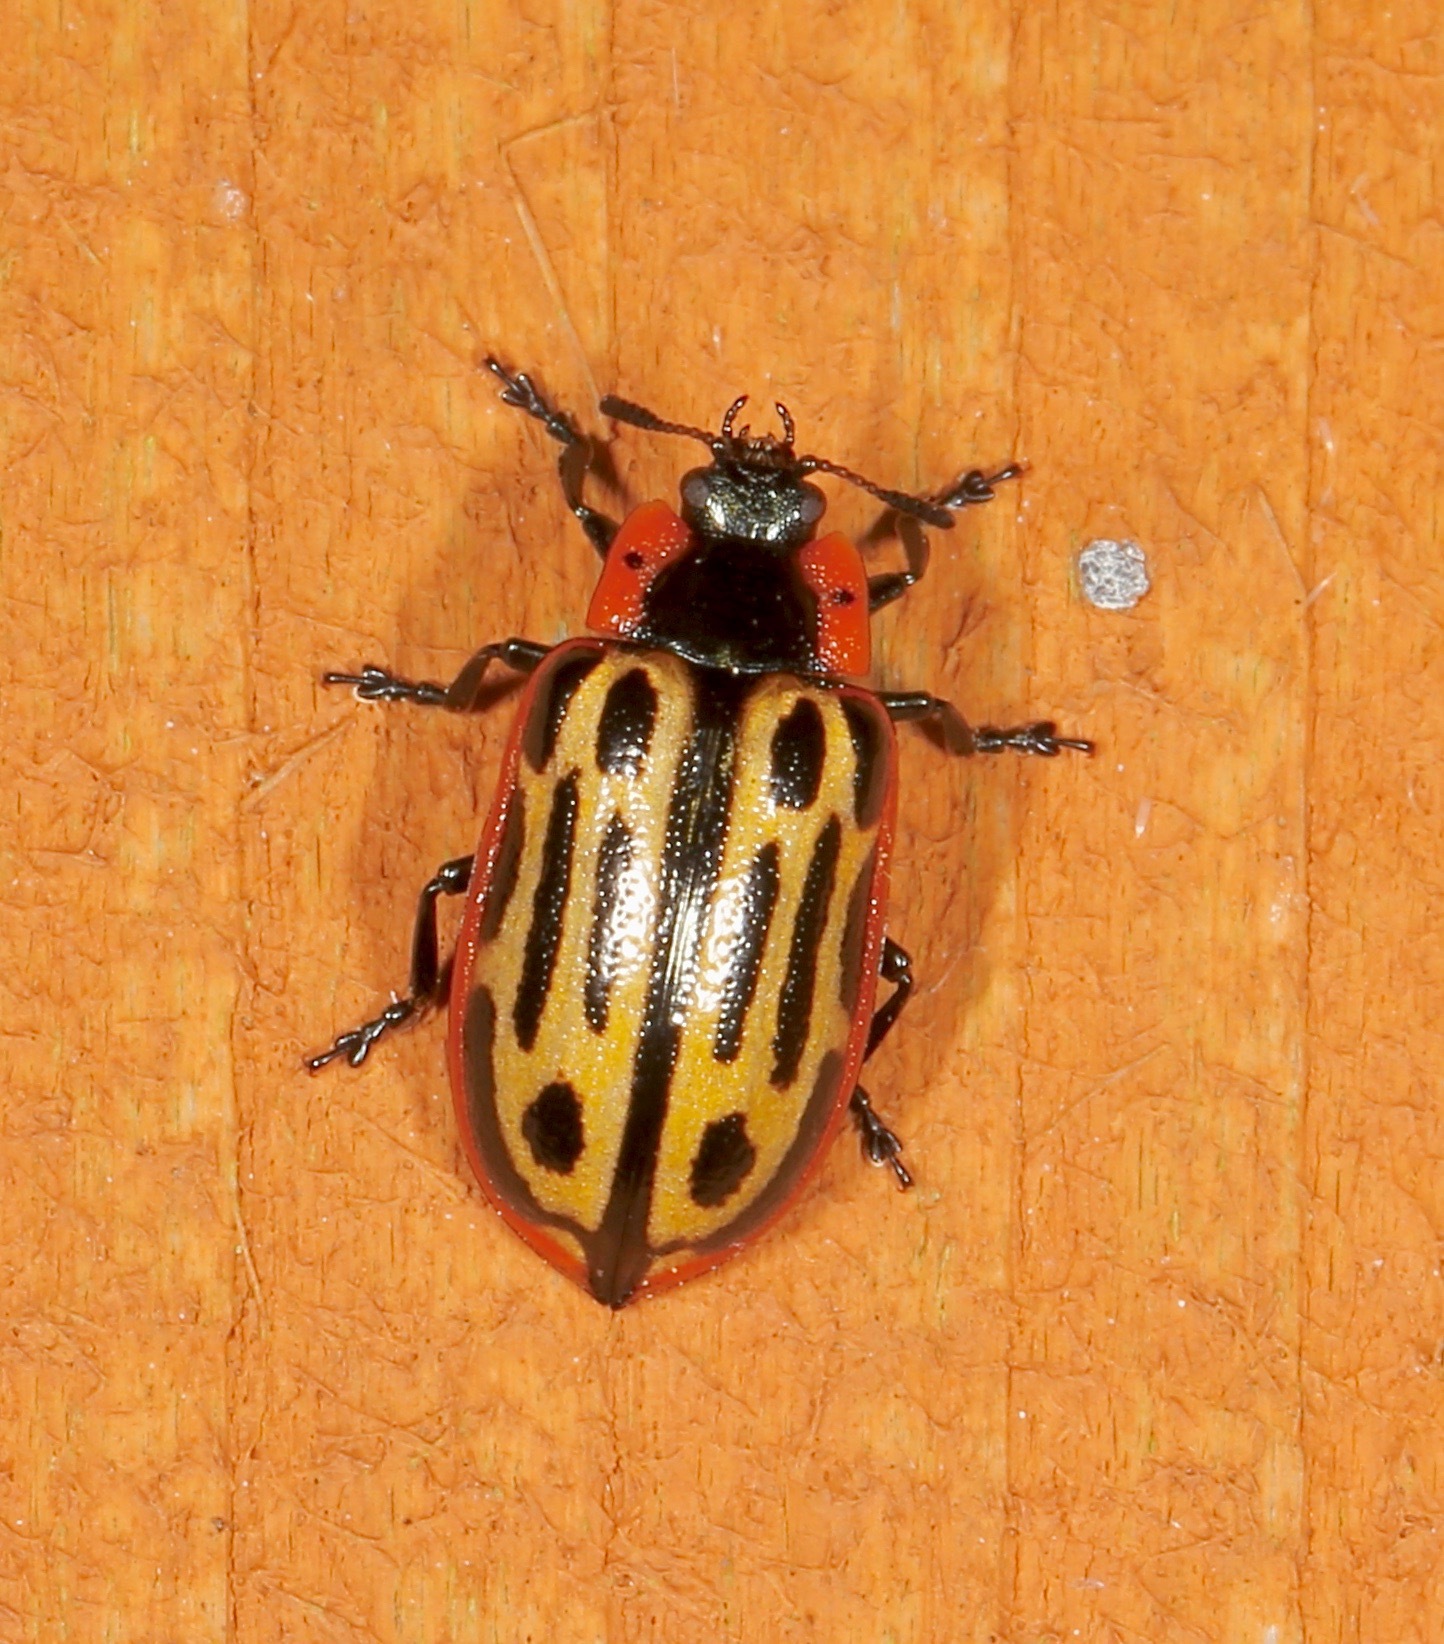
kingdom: Animalia
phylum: Arthropoda
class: Insecta
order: Coleoptera
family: Chrysomelidae
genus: Aethiopocassis
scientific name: Aethiopocassis scripta
